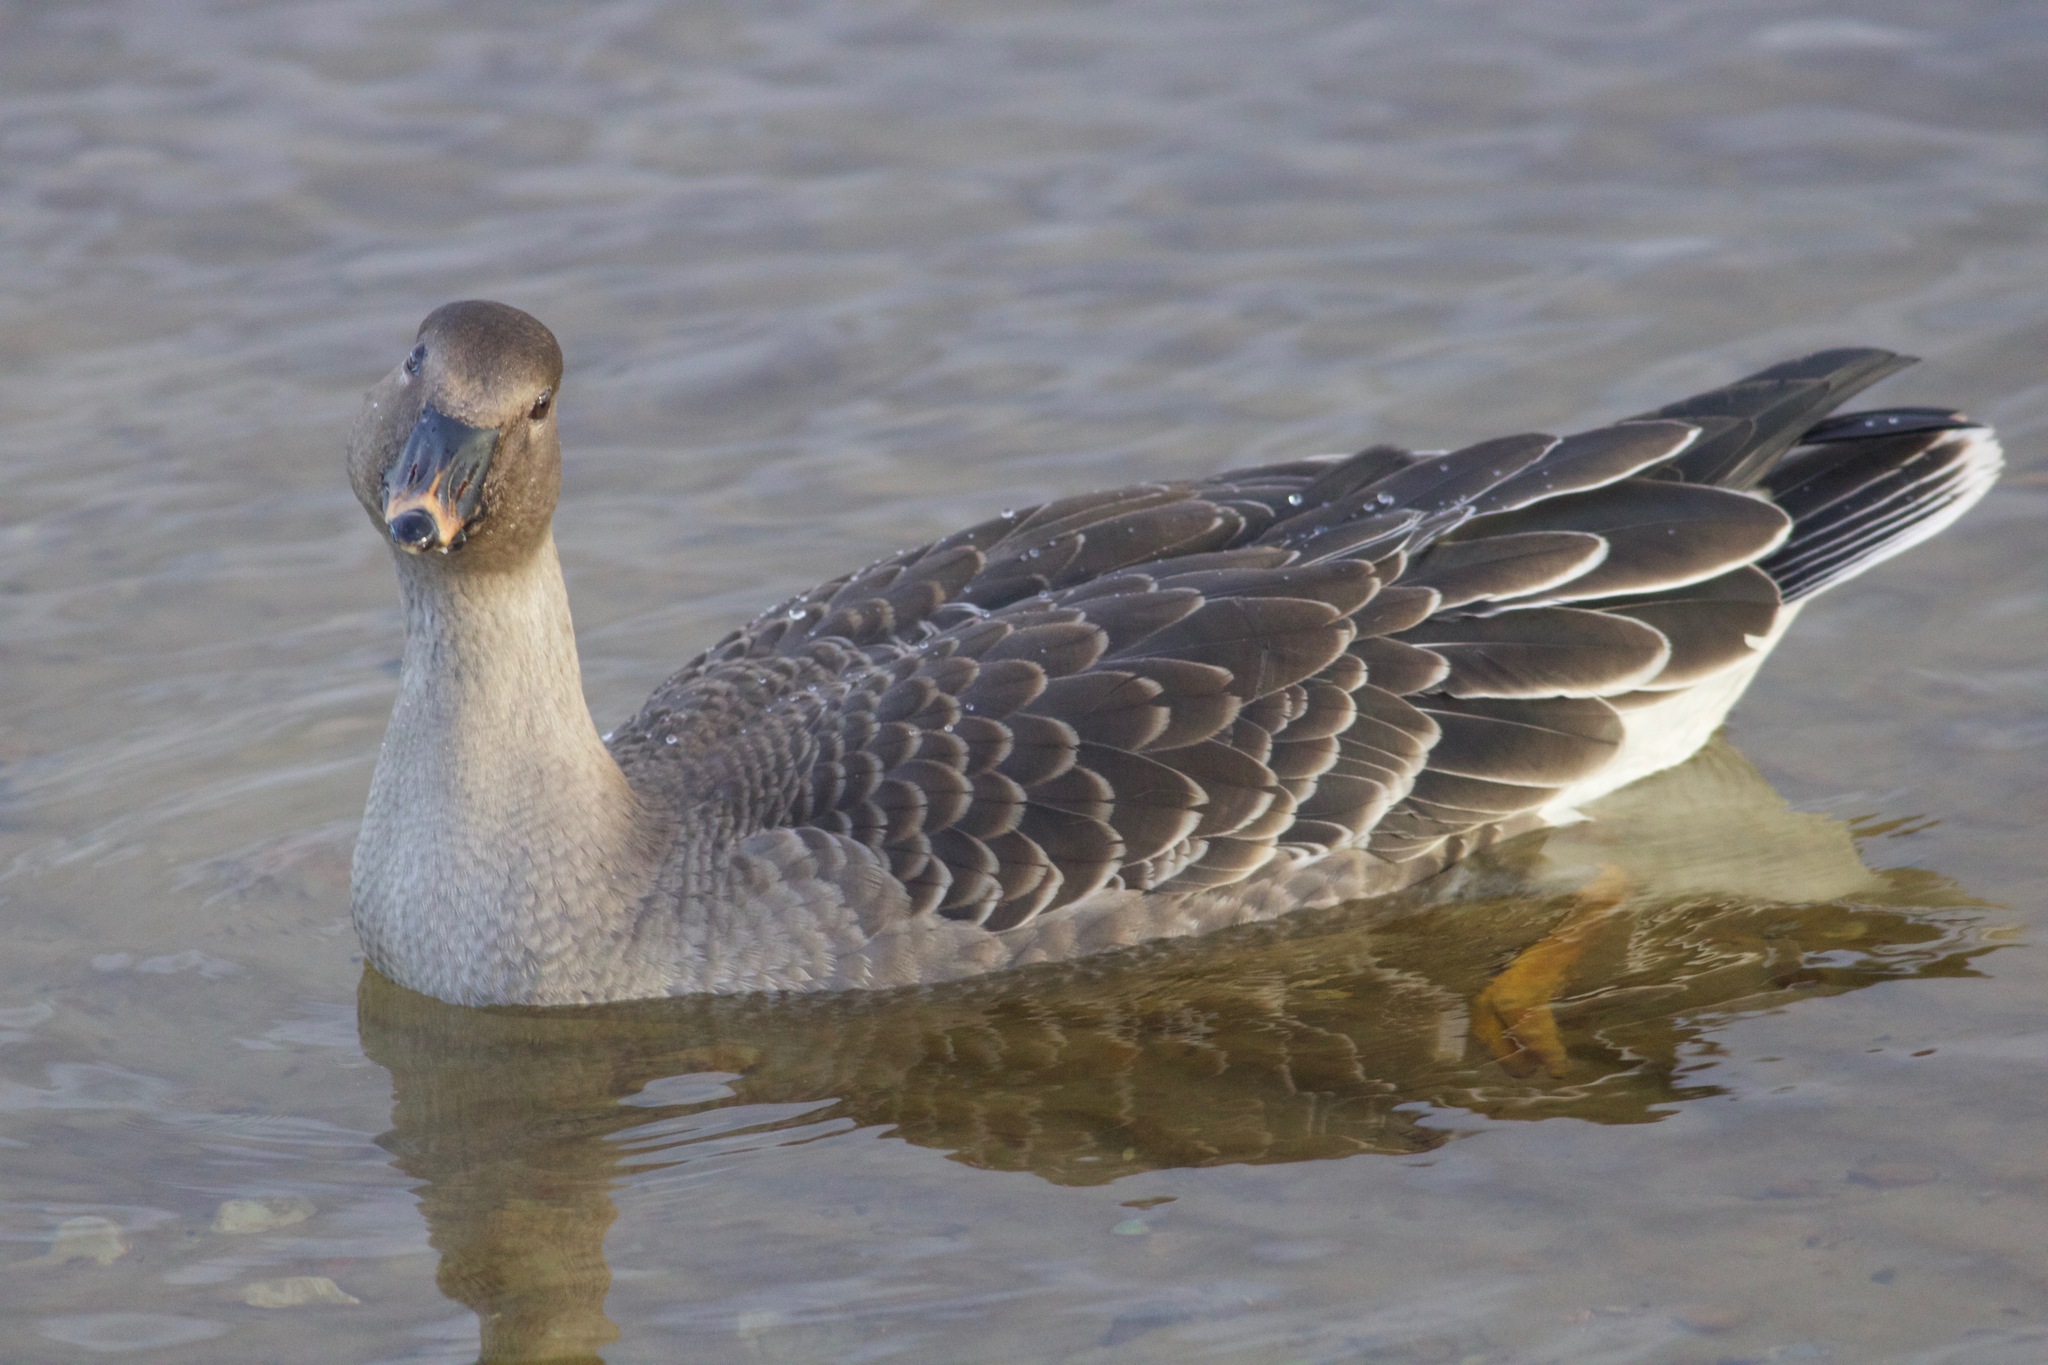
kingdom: Animalia
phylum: Chordata
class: Aves
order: Anseriformes
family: Anatidae
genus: Anser
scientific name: Anser fabalis
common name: Bean goose
